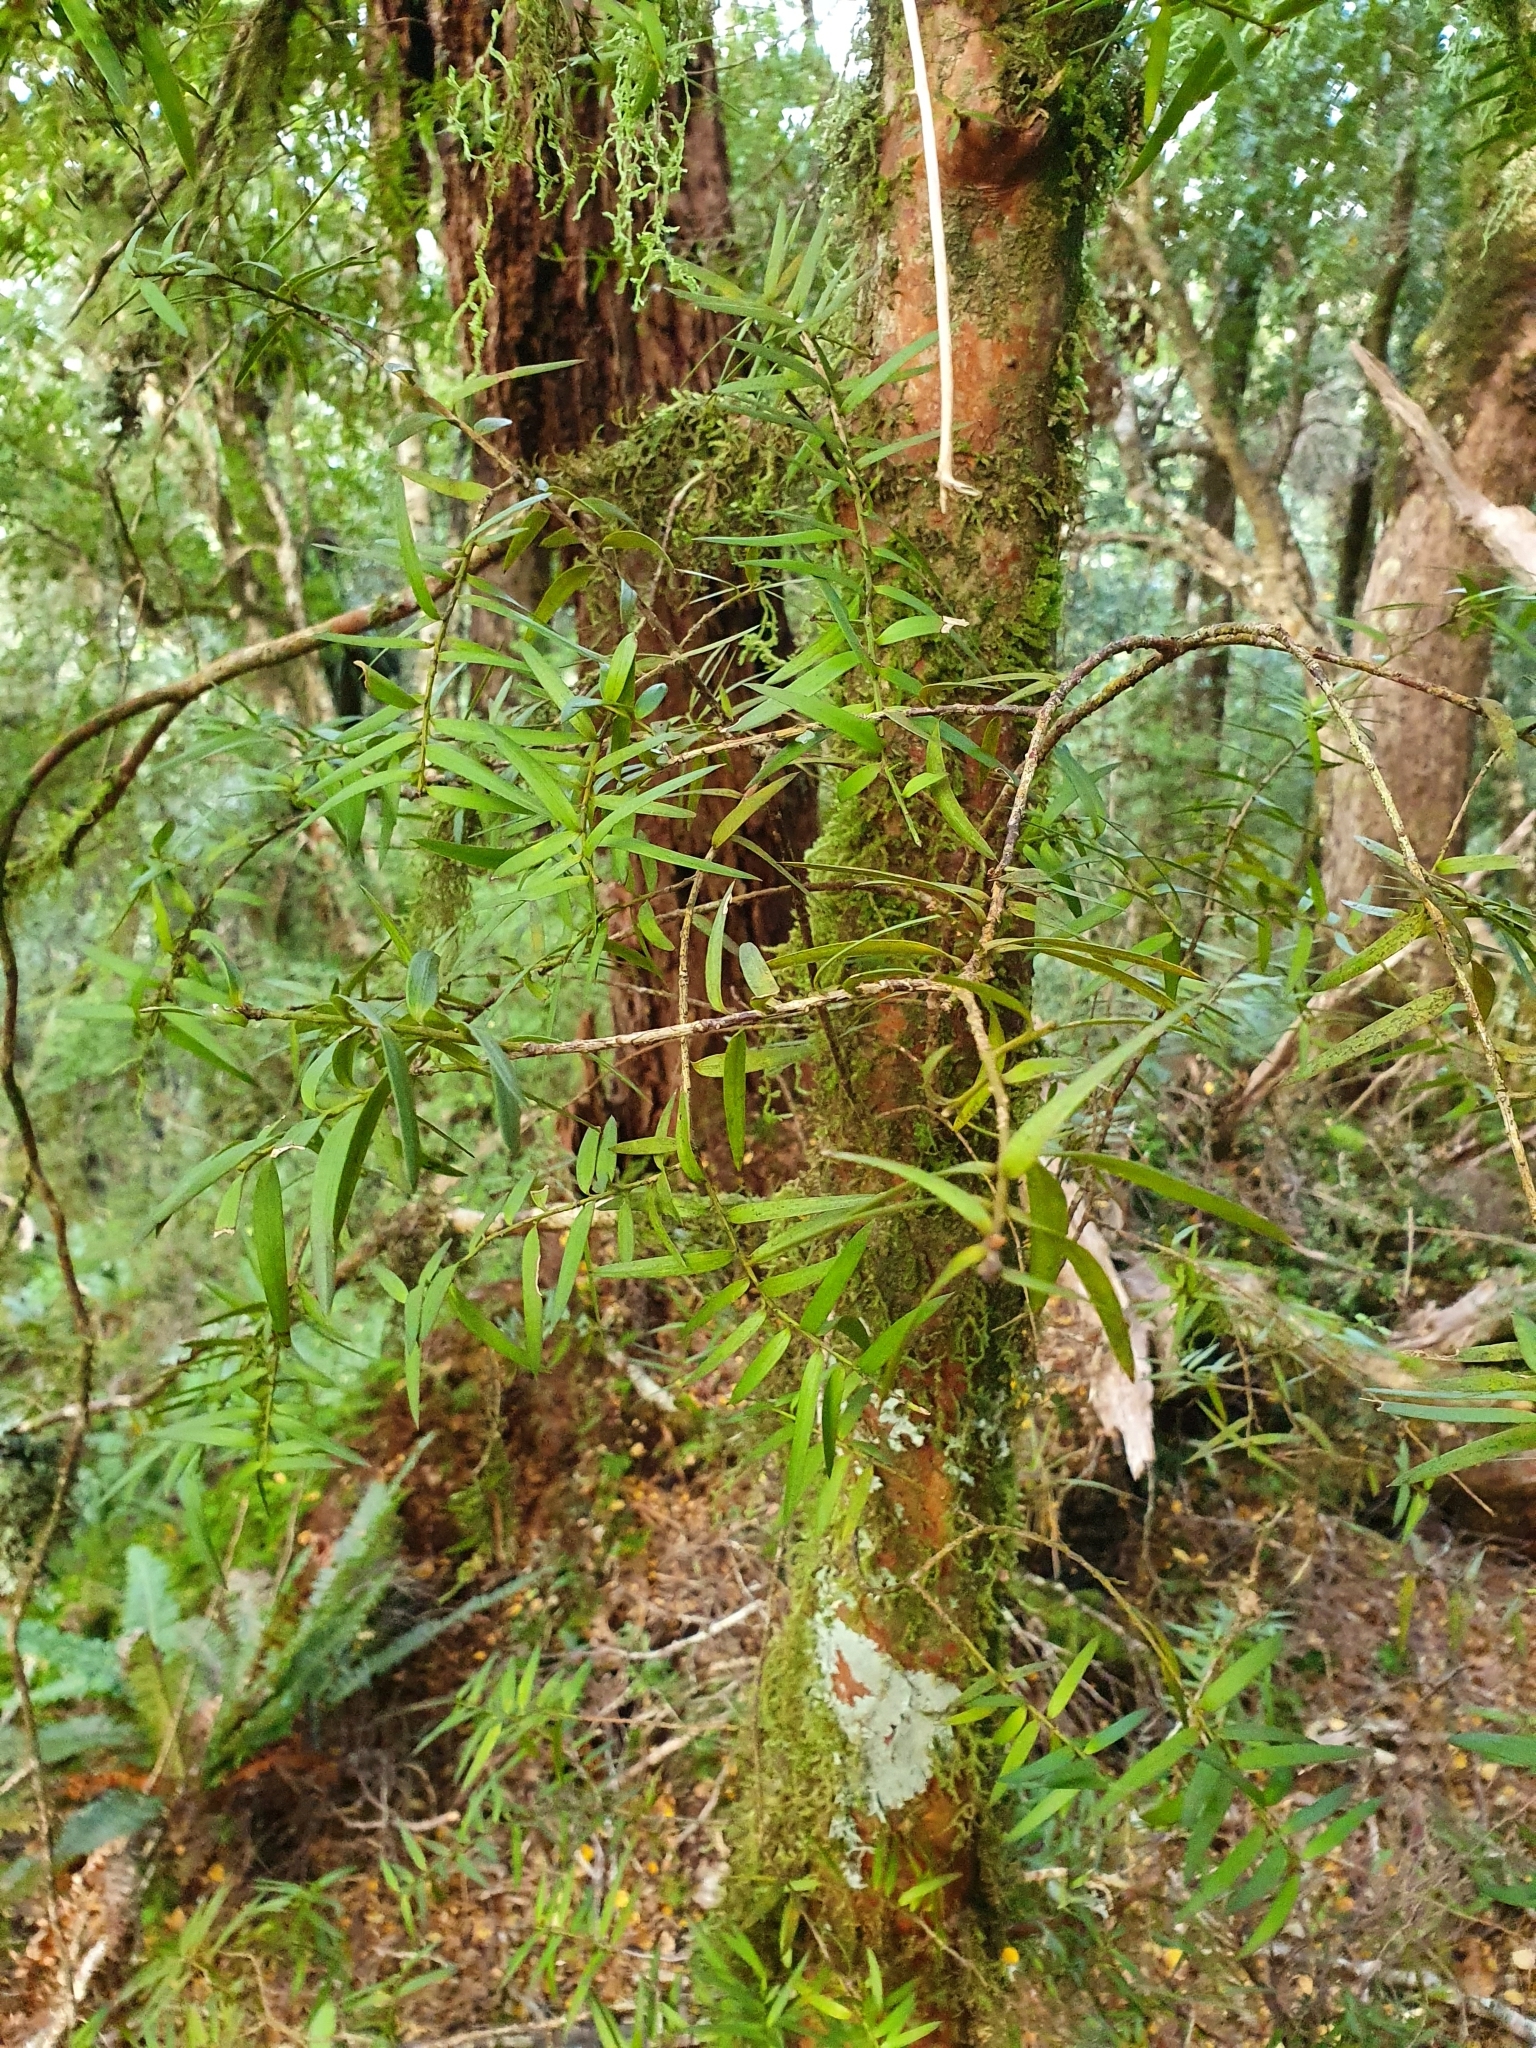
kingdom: Plantae
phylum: Tracheophyta
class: Pinopsida
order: Pinales
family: Podocarpaceae
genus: Podocarpus
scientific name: Podocarpus laetus
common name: Hall's totara
